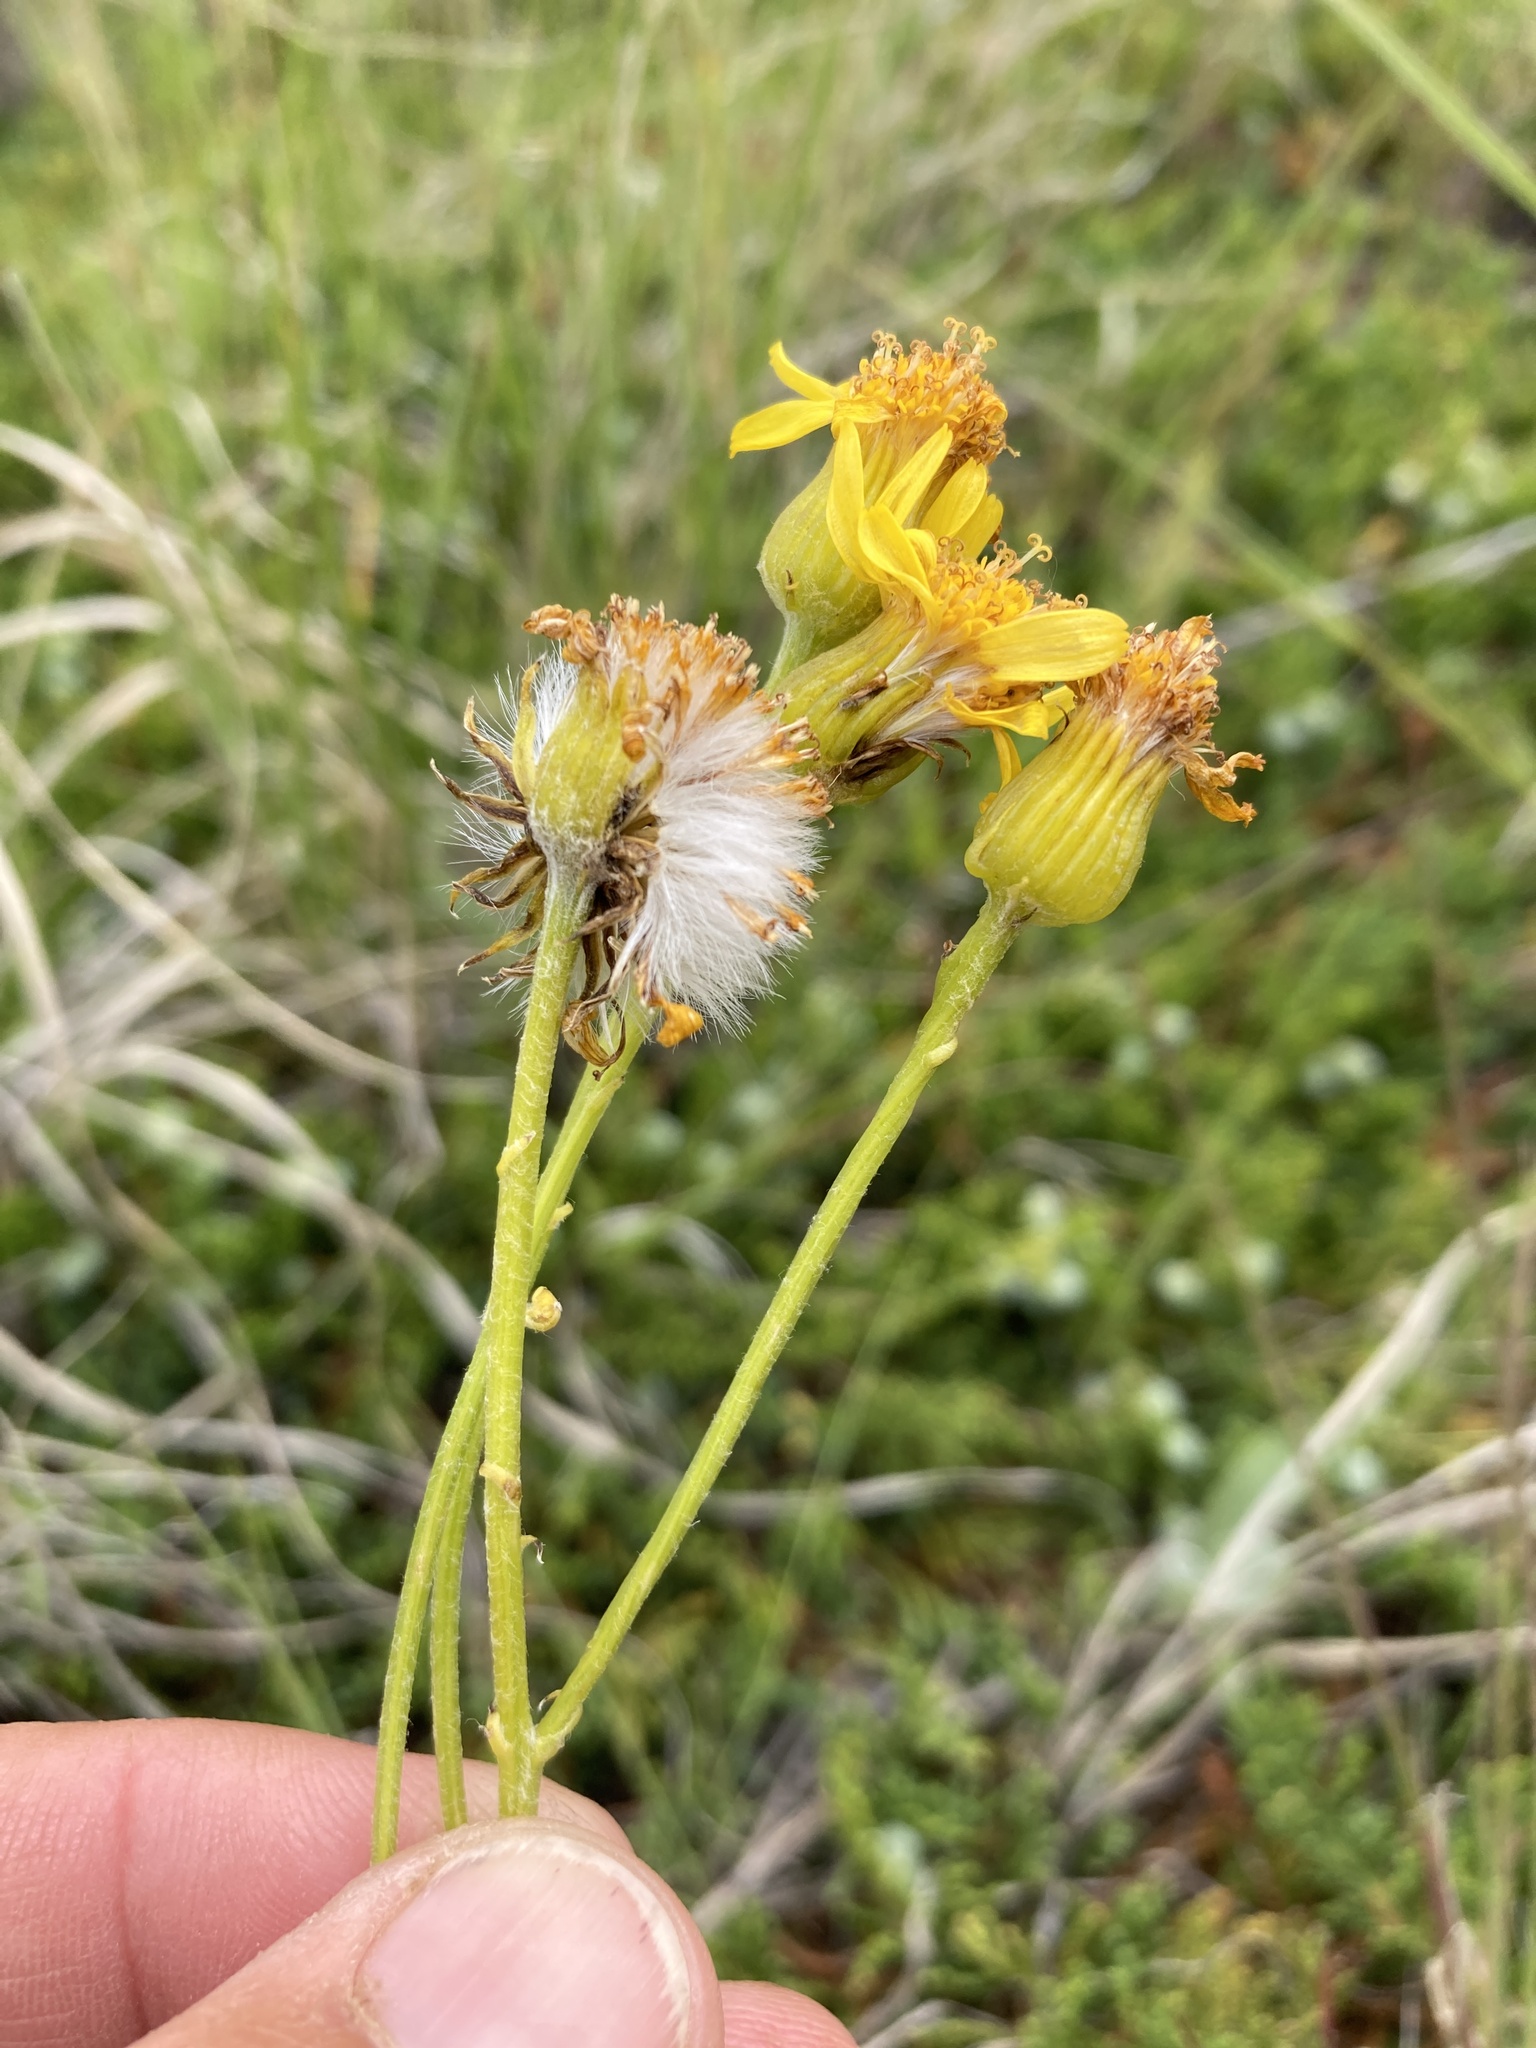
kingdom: Plantae
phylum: Tracheophyta
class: Magnoliopsida
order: Asterales
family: Asteraceae
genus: Packera
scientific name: Packera cana
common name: Woolly groundsel
